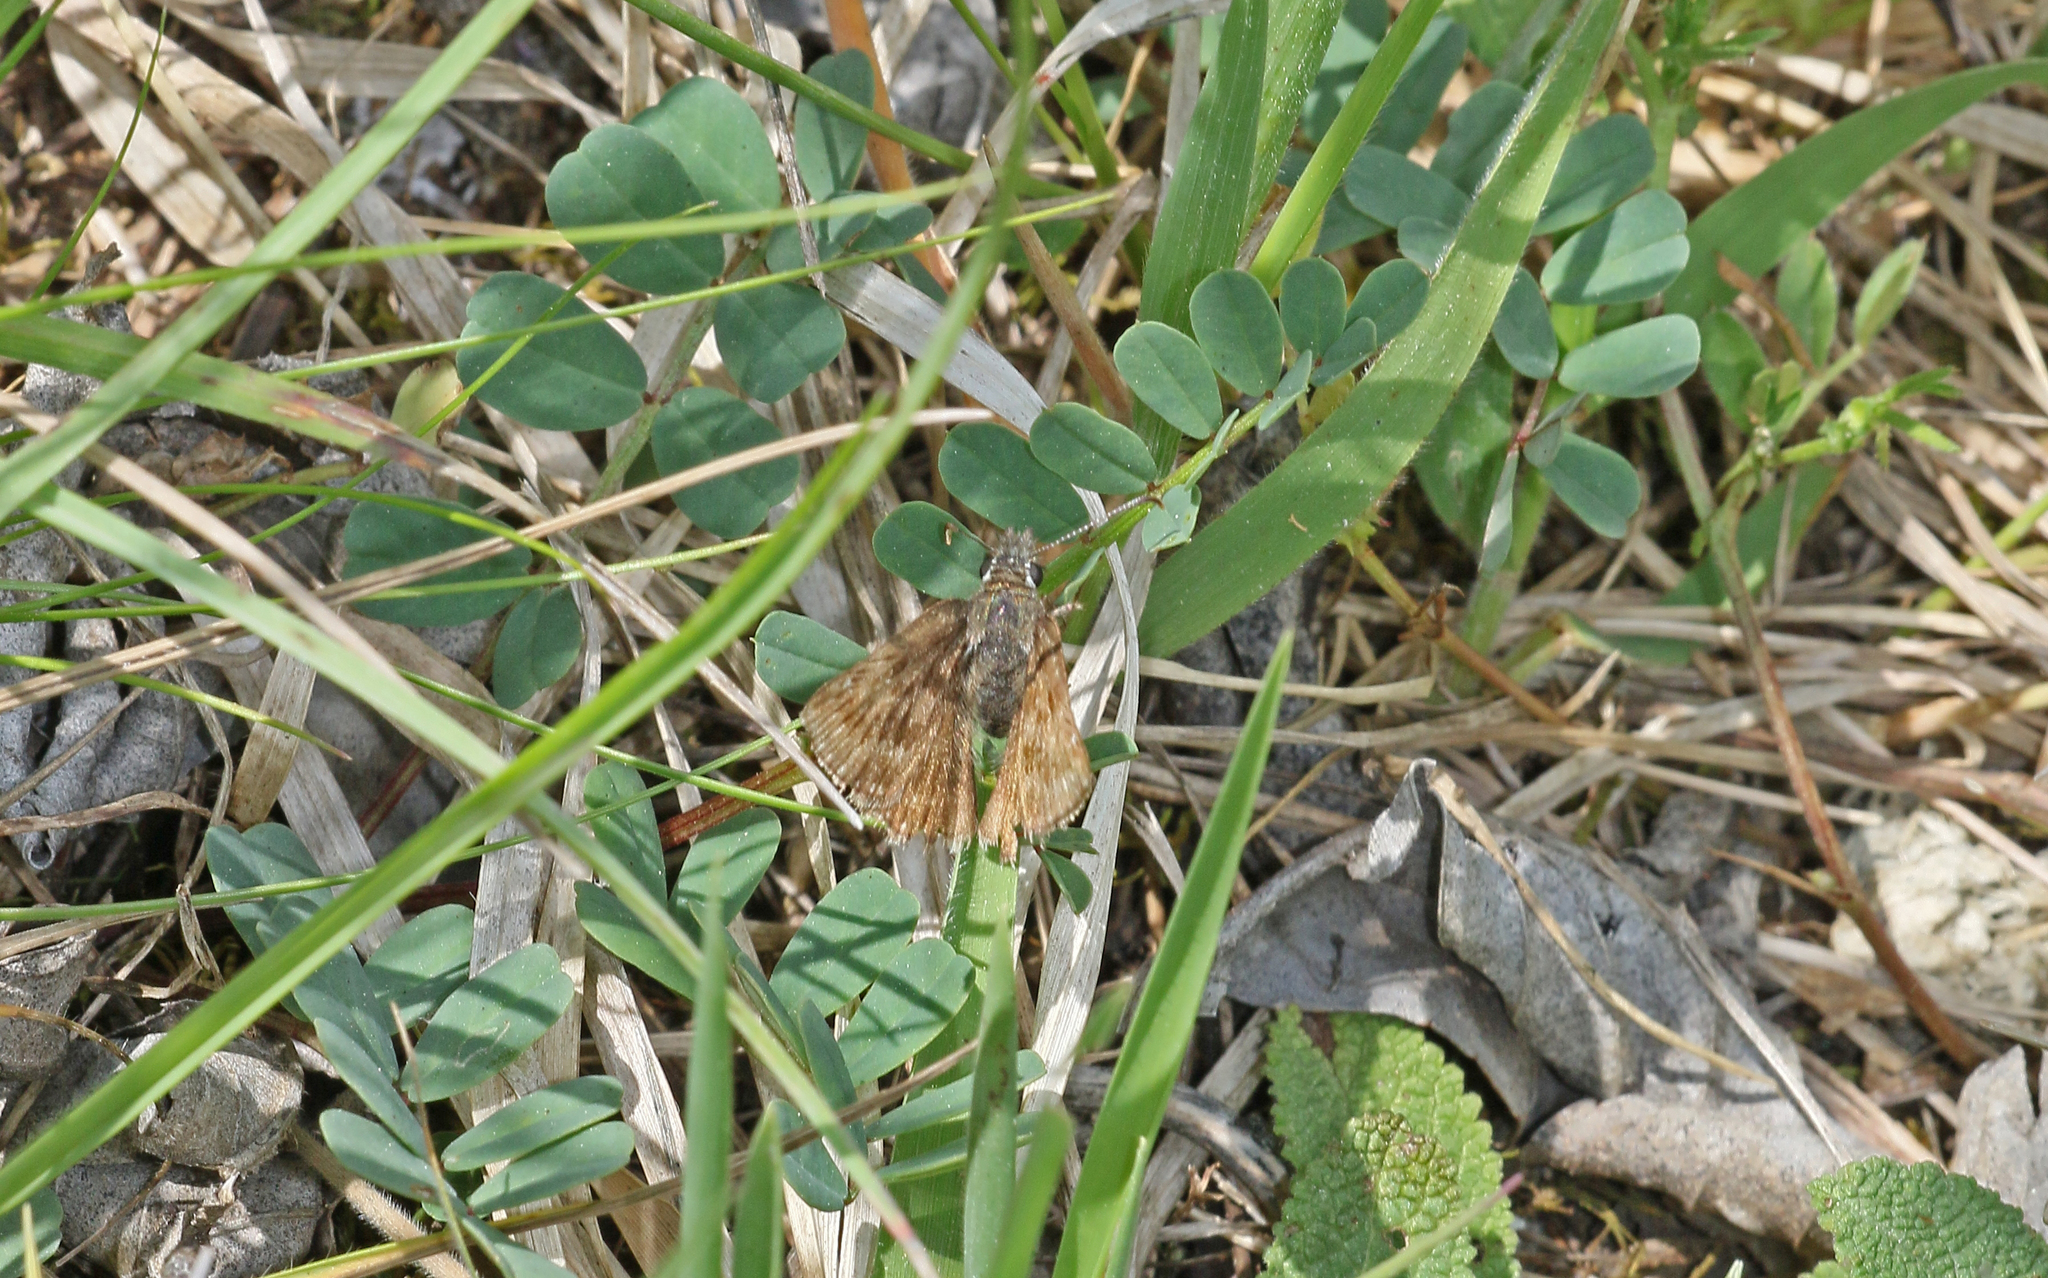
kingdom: Animalia
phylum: Arthropoda
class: Insecta
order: Lepidoptera
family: Hesperiidae
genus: Erynnis
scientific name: Erynnis tages
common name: Dingy skipper
